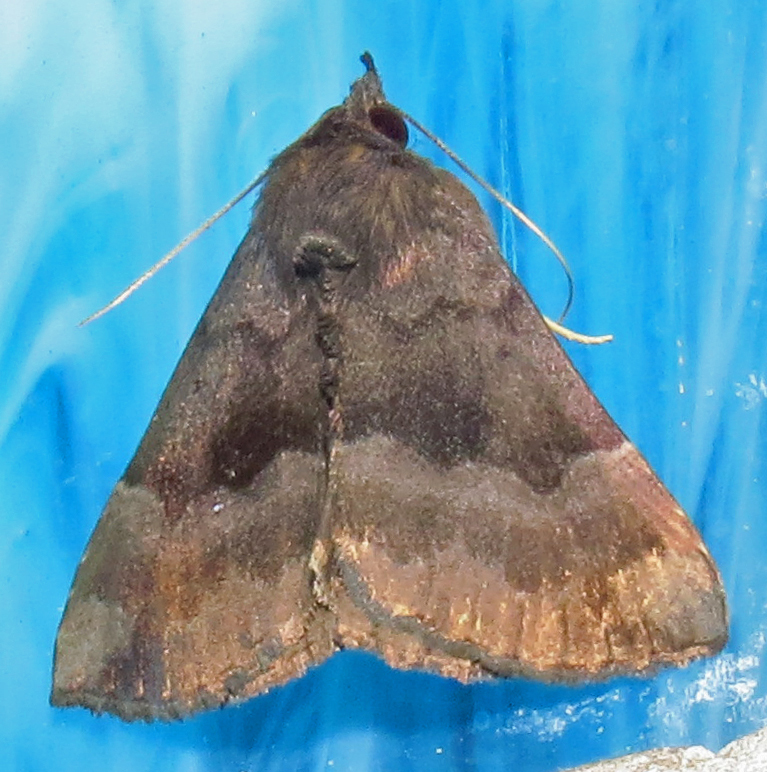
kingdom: Animalia
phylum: Arthropoda
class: Insecta
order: Lepidoptera
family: Erebidae
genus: Hypena
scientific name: Hypena madefactalis
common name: Gray-edged snout
